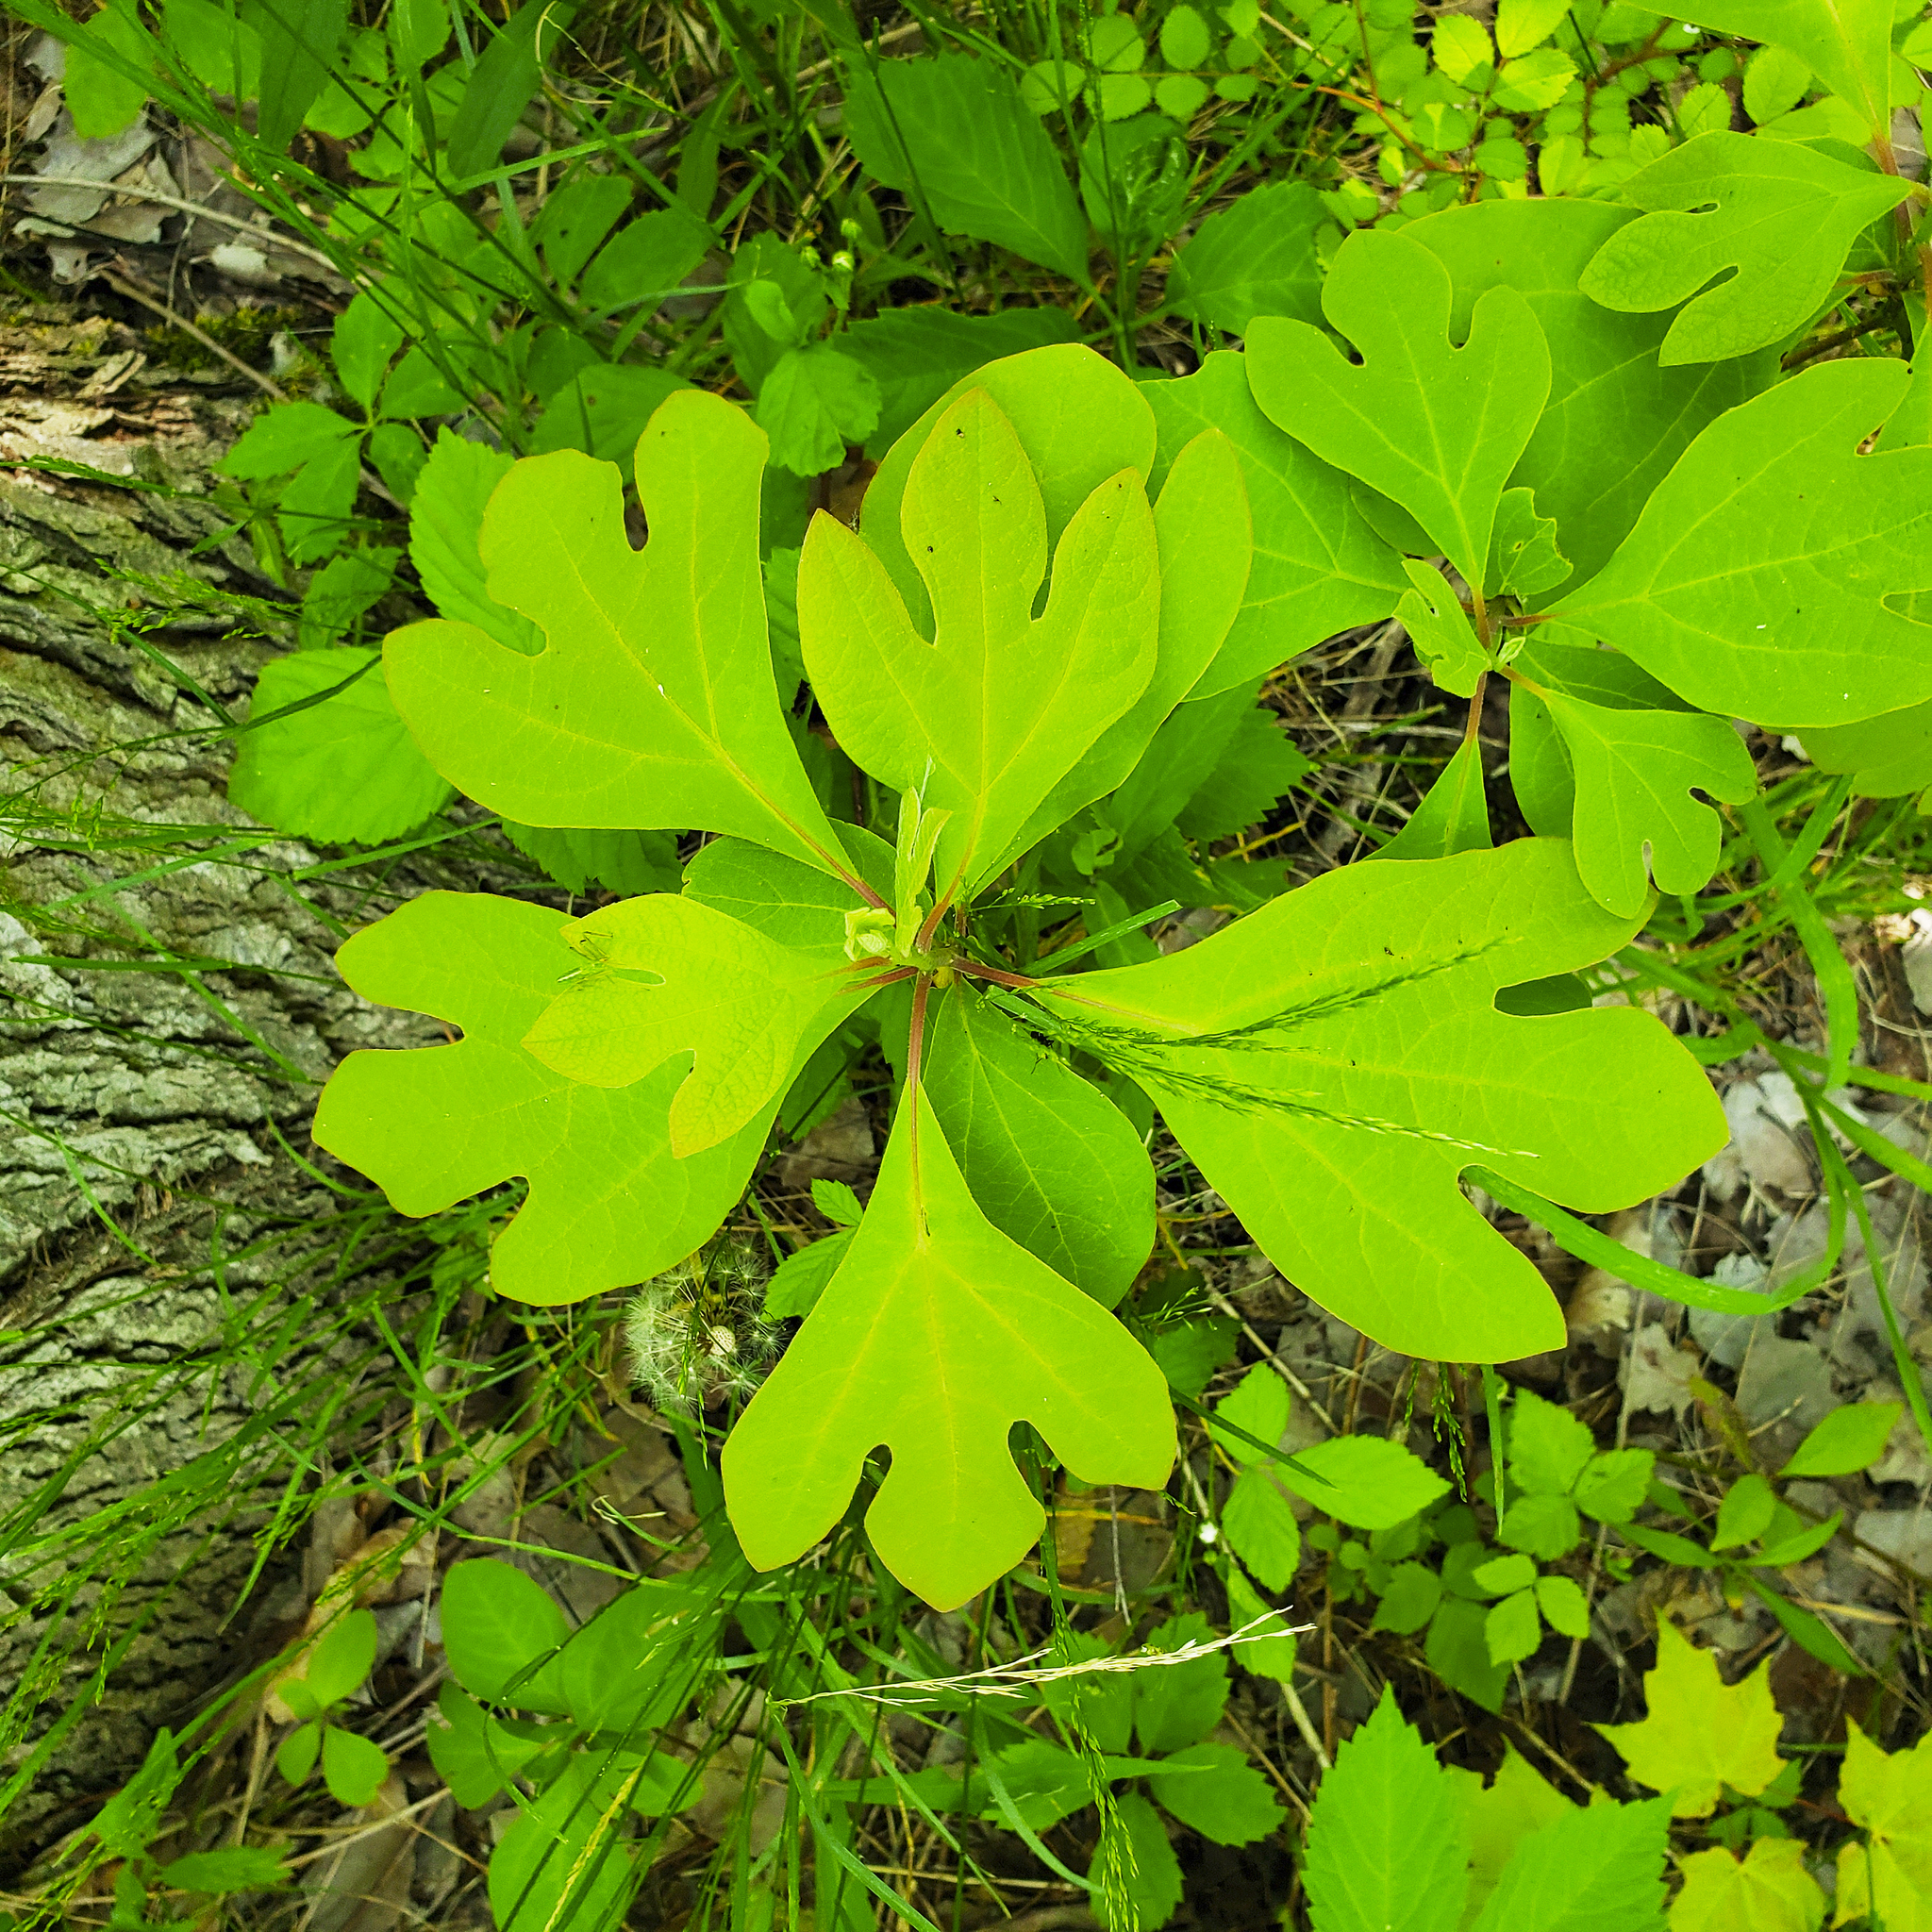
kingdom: Plantae
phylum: Tracheophyta
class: Magnoliopsida
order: Laurales
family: Lauraceae
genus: Sassafras
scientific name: Sassafras albidum
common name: Sassafras
